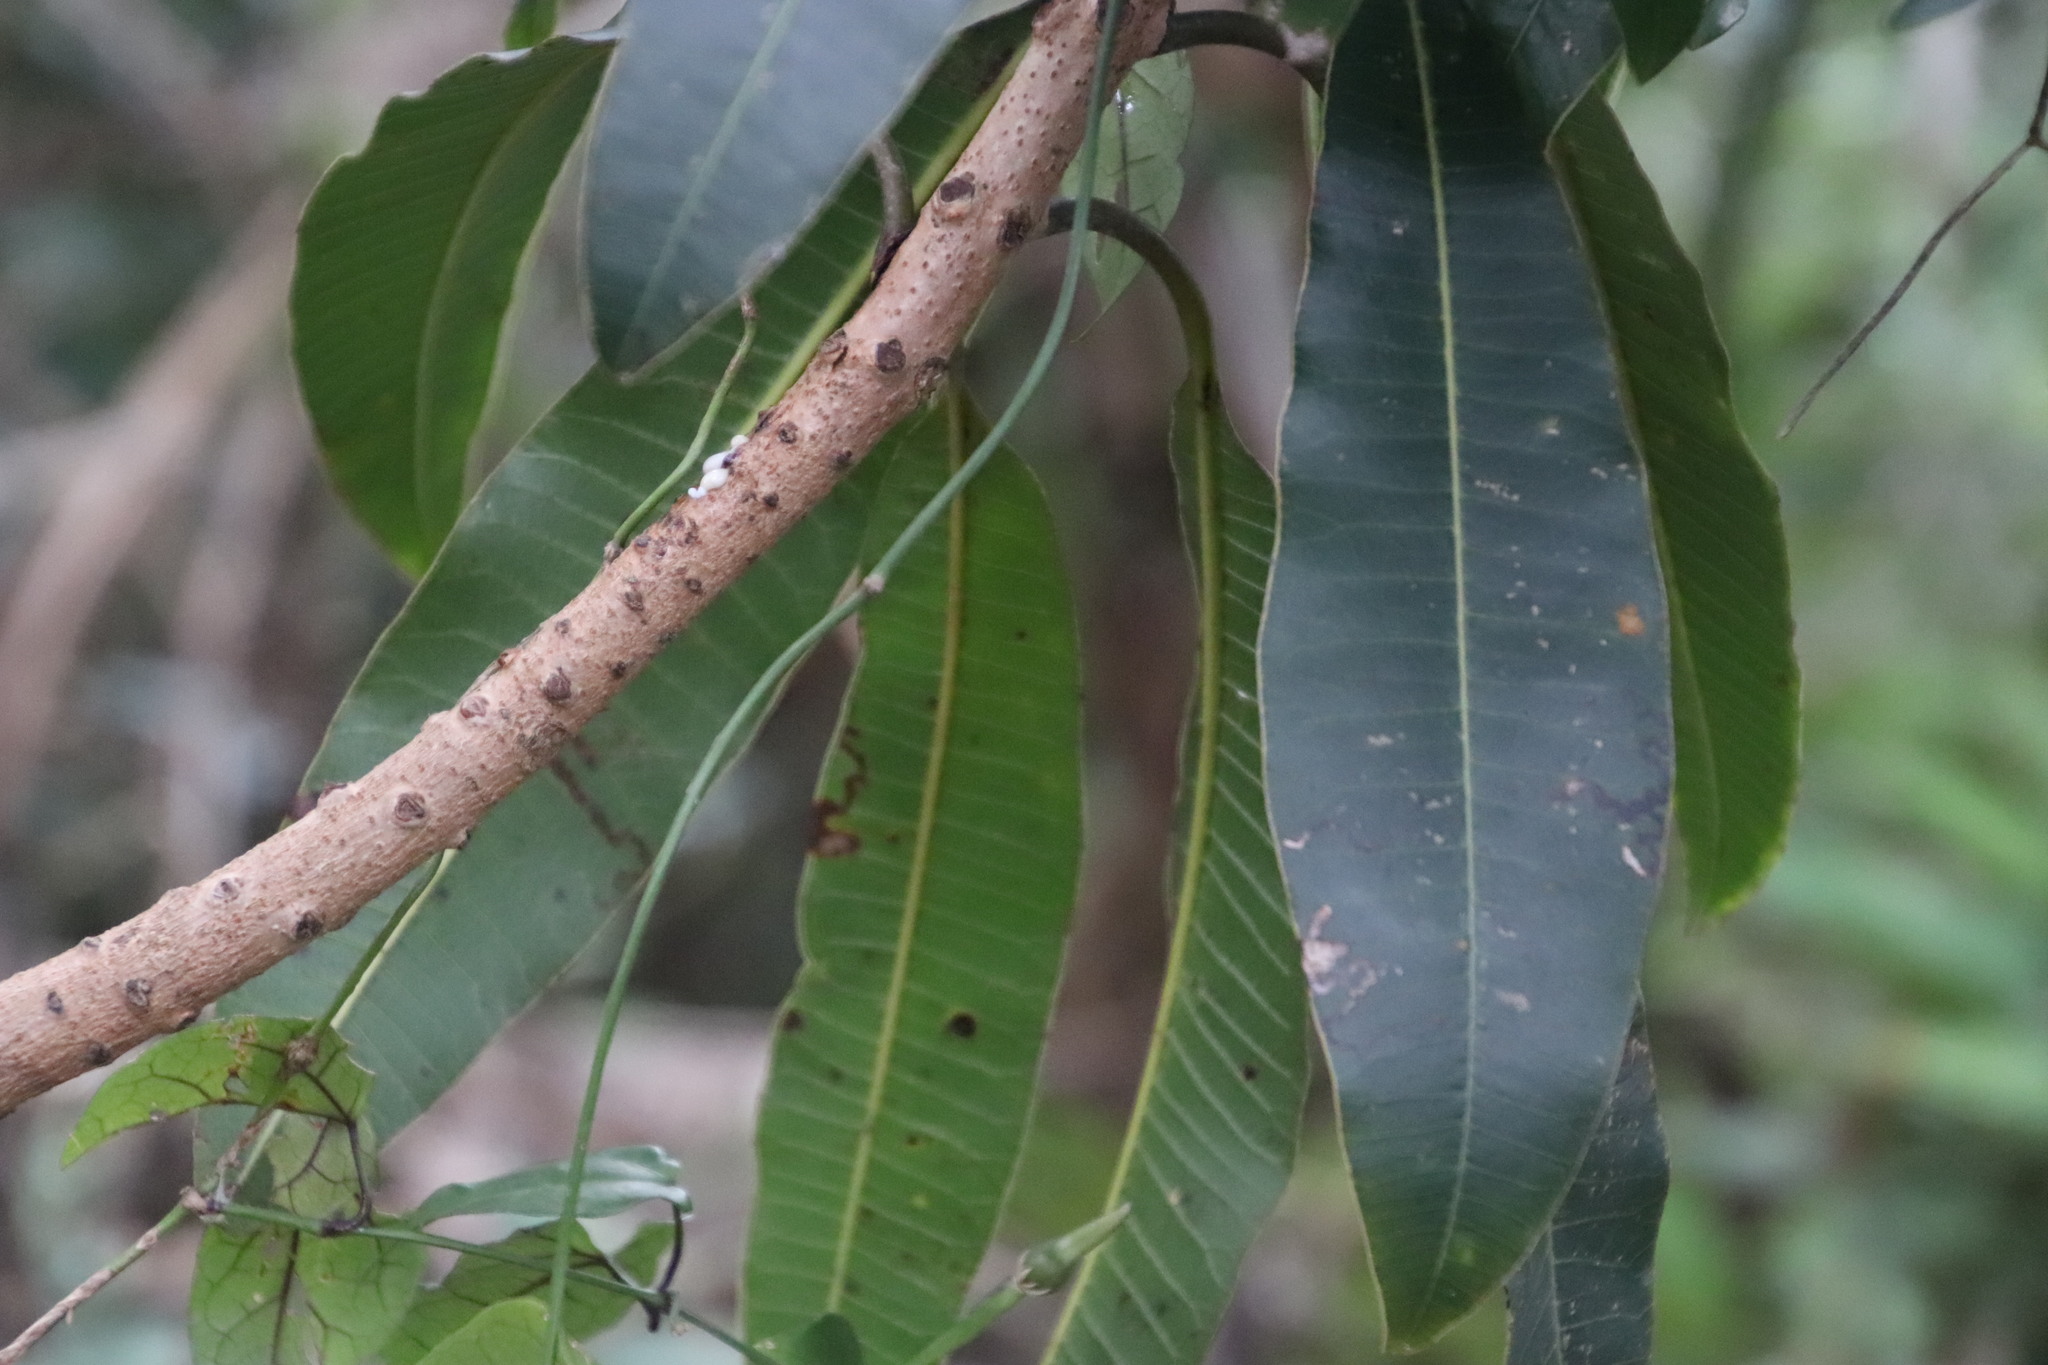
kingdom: Plantae
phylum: Tracheophyta
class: Magnoliopsida
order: Sapindales
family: Anacardiaceae
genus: Protorhus
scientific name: Protorhus longifolia
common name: Red-beech
